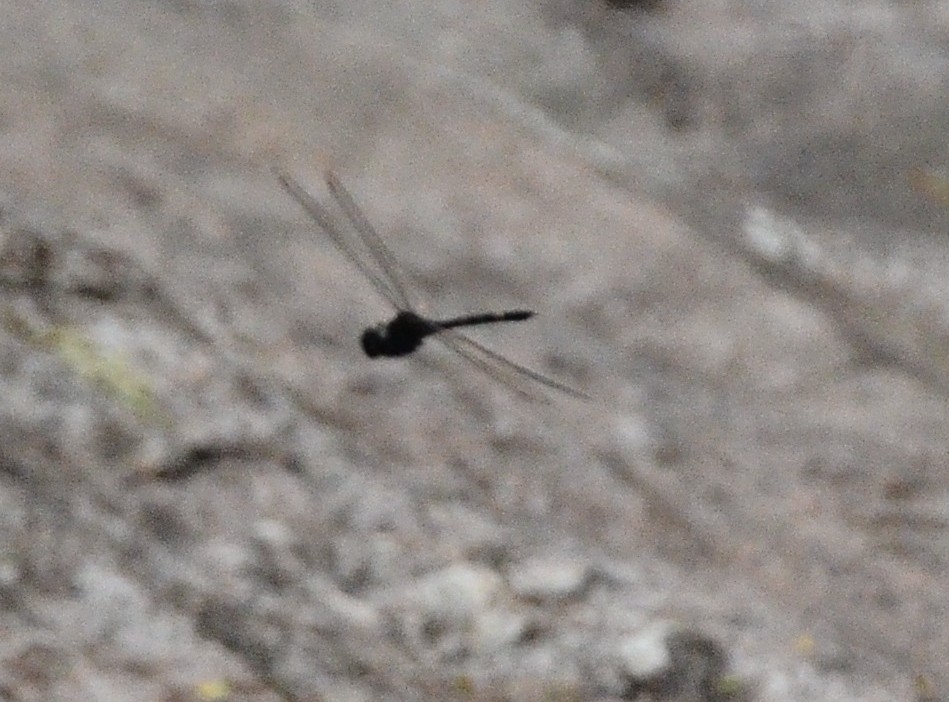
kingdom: Animalia
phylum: Arthropoda
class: Insecta
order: Odonata
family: Libellulidae
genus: Zygonyx
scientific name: Zygonyx iris
